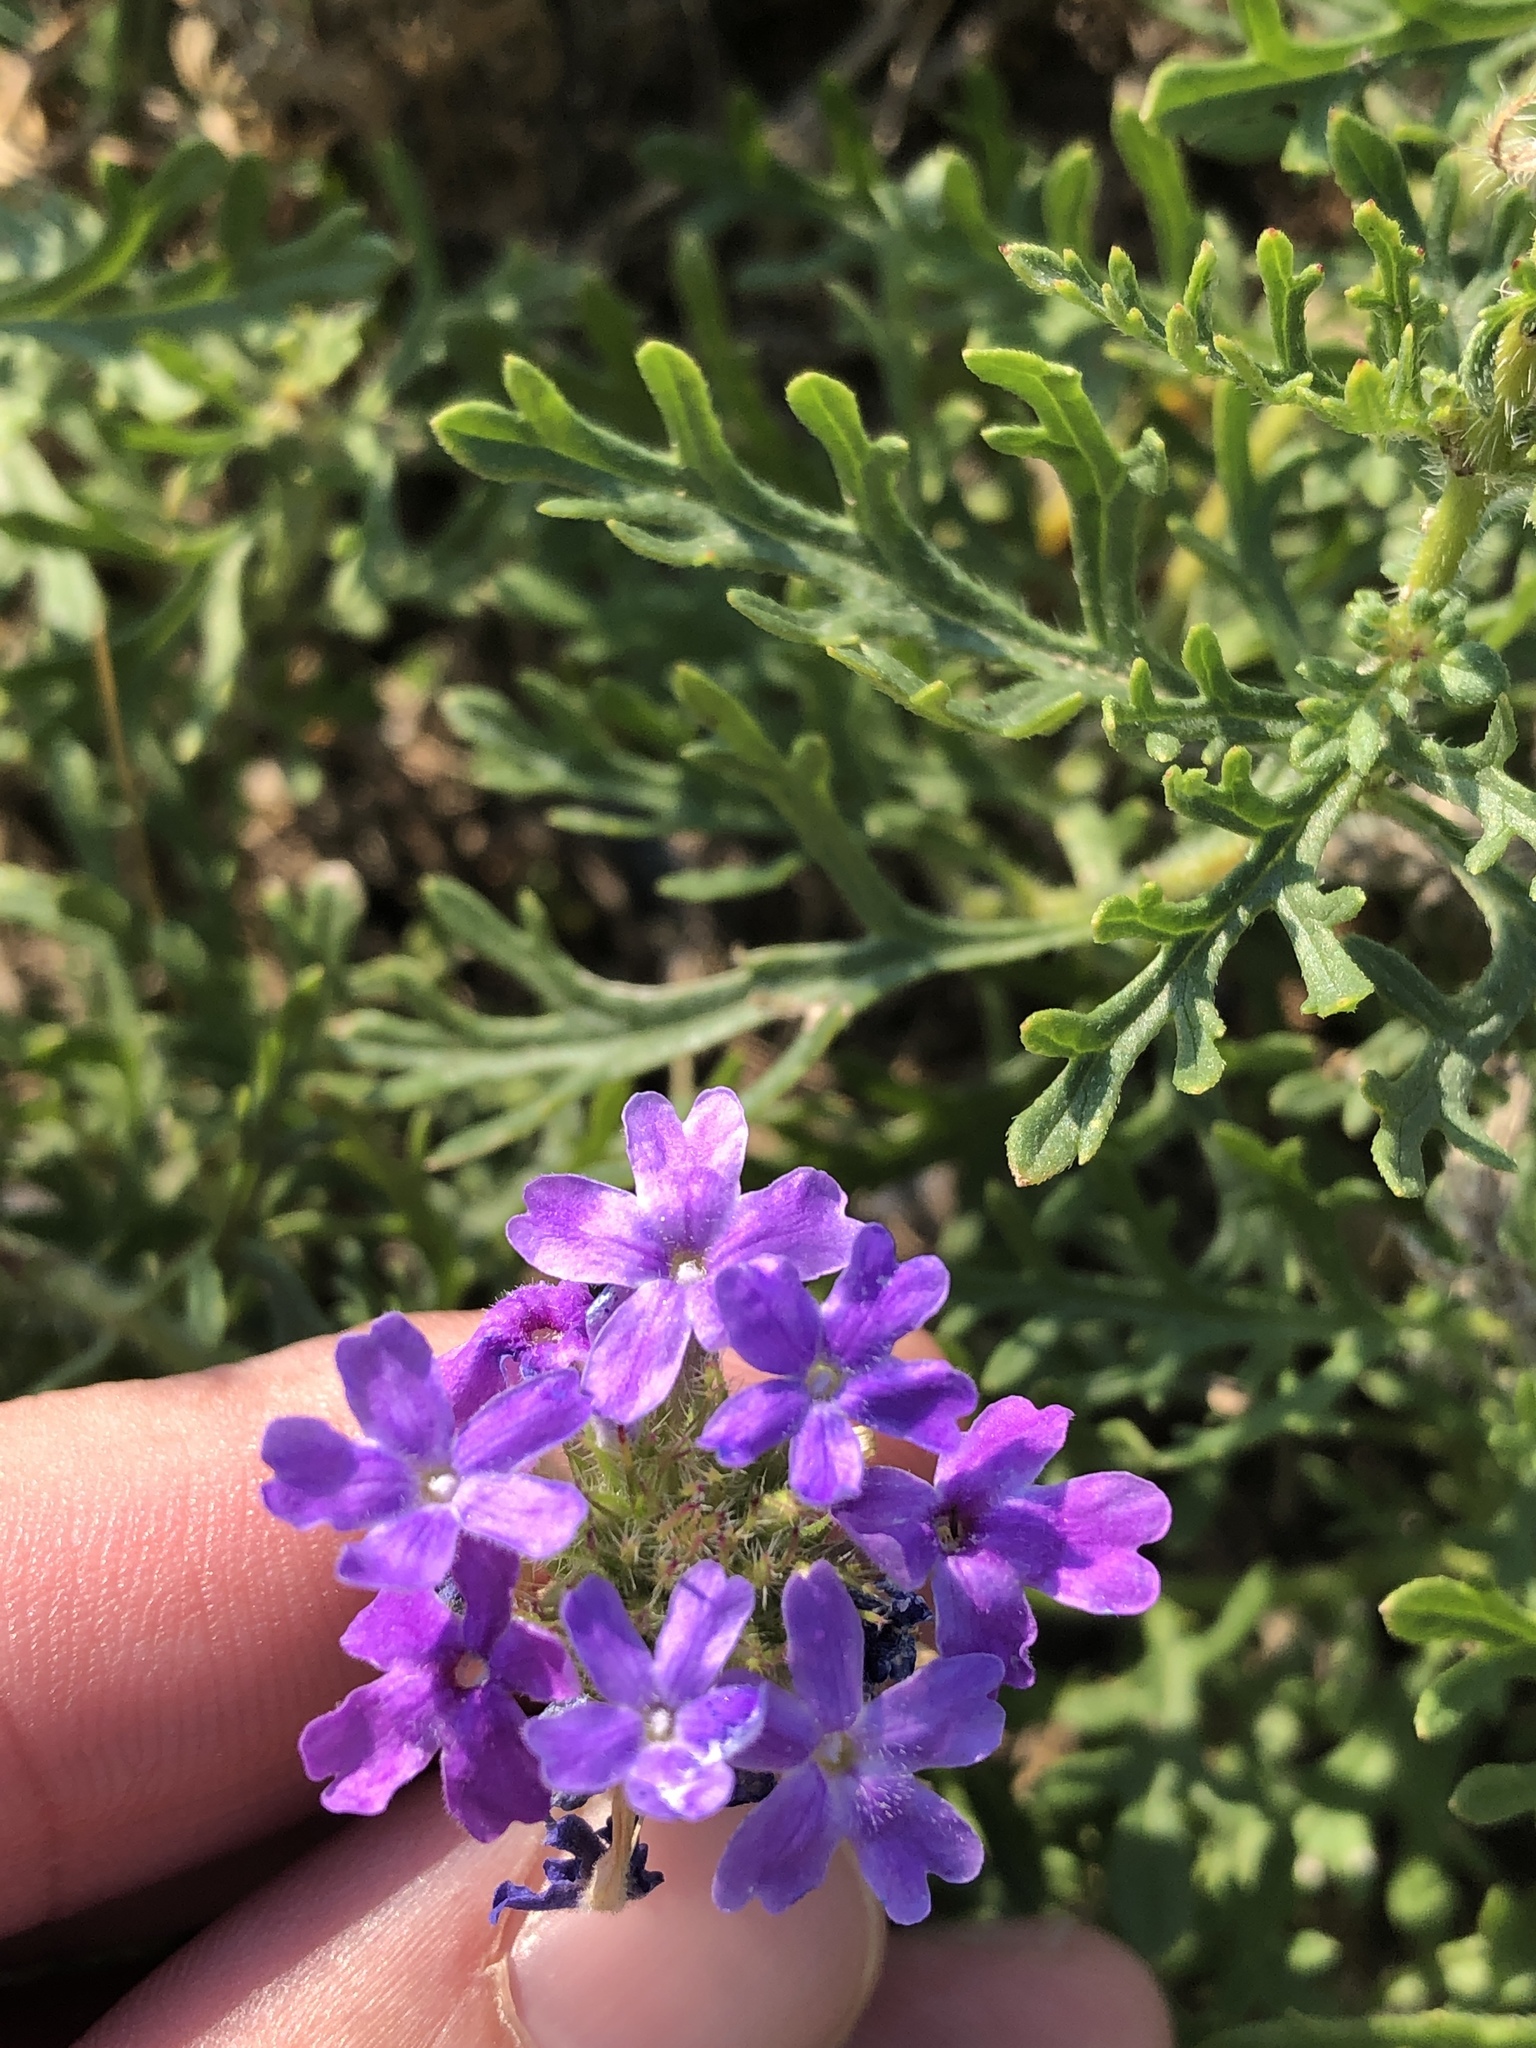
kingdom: Plantae
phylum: Tracheophyta
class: Magnoliopsida
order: Lamiales
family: Verbenaceae
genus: Verbena
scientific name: Verbena bipinnatifida
